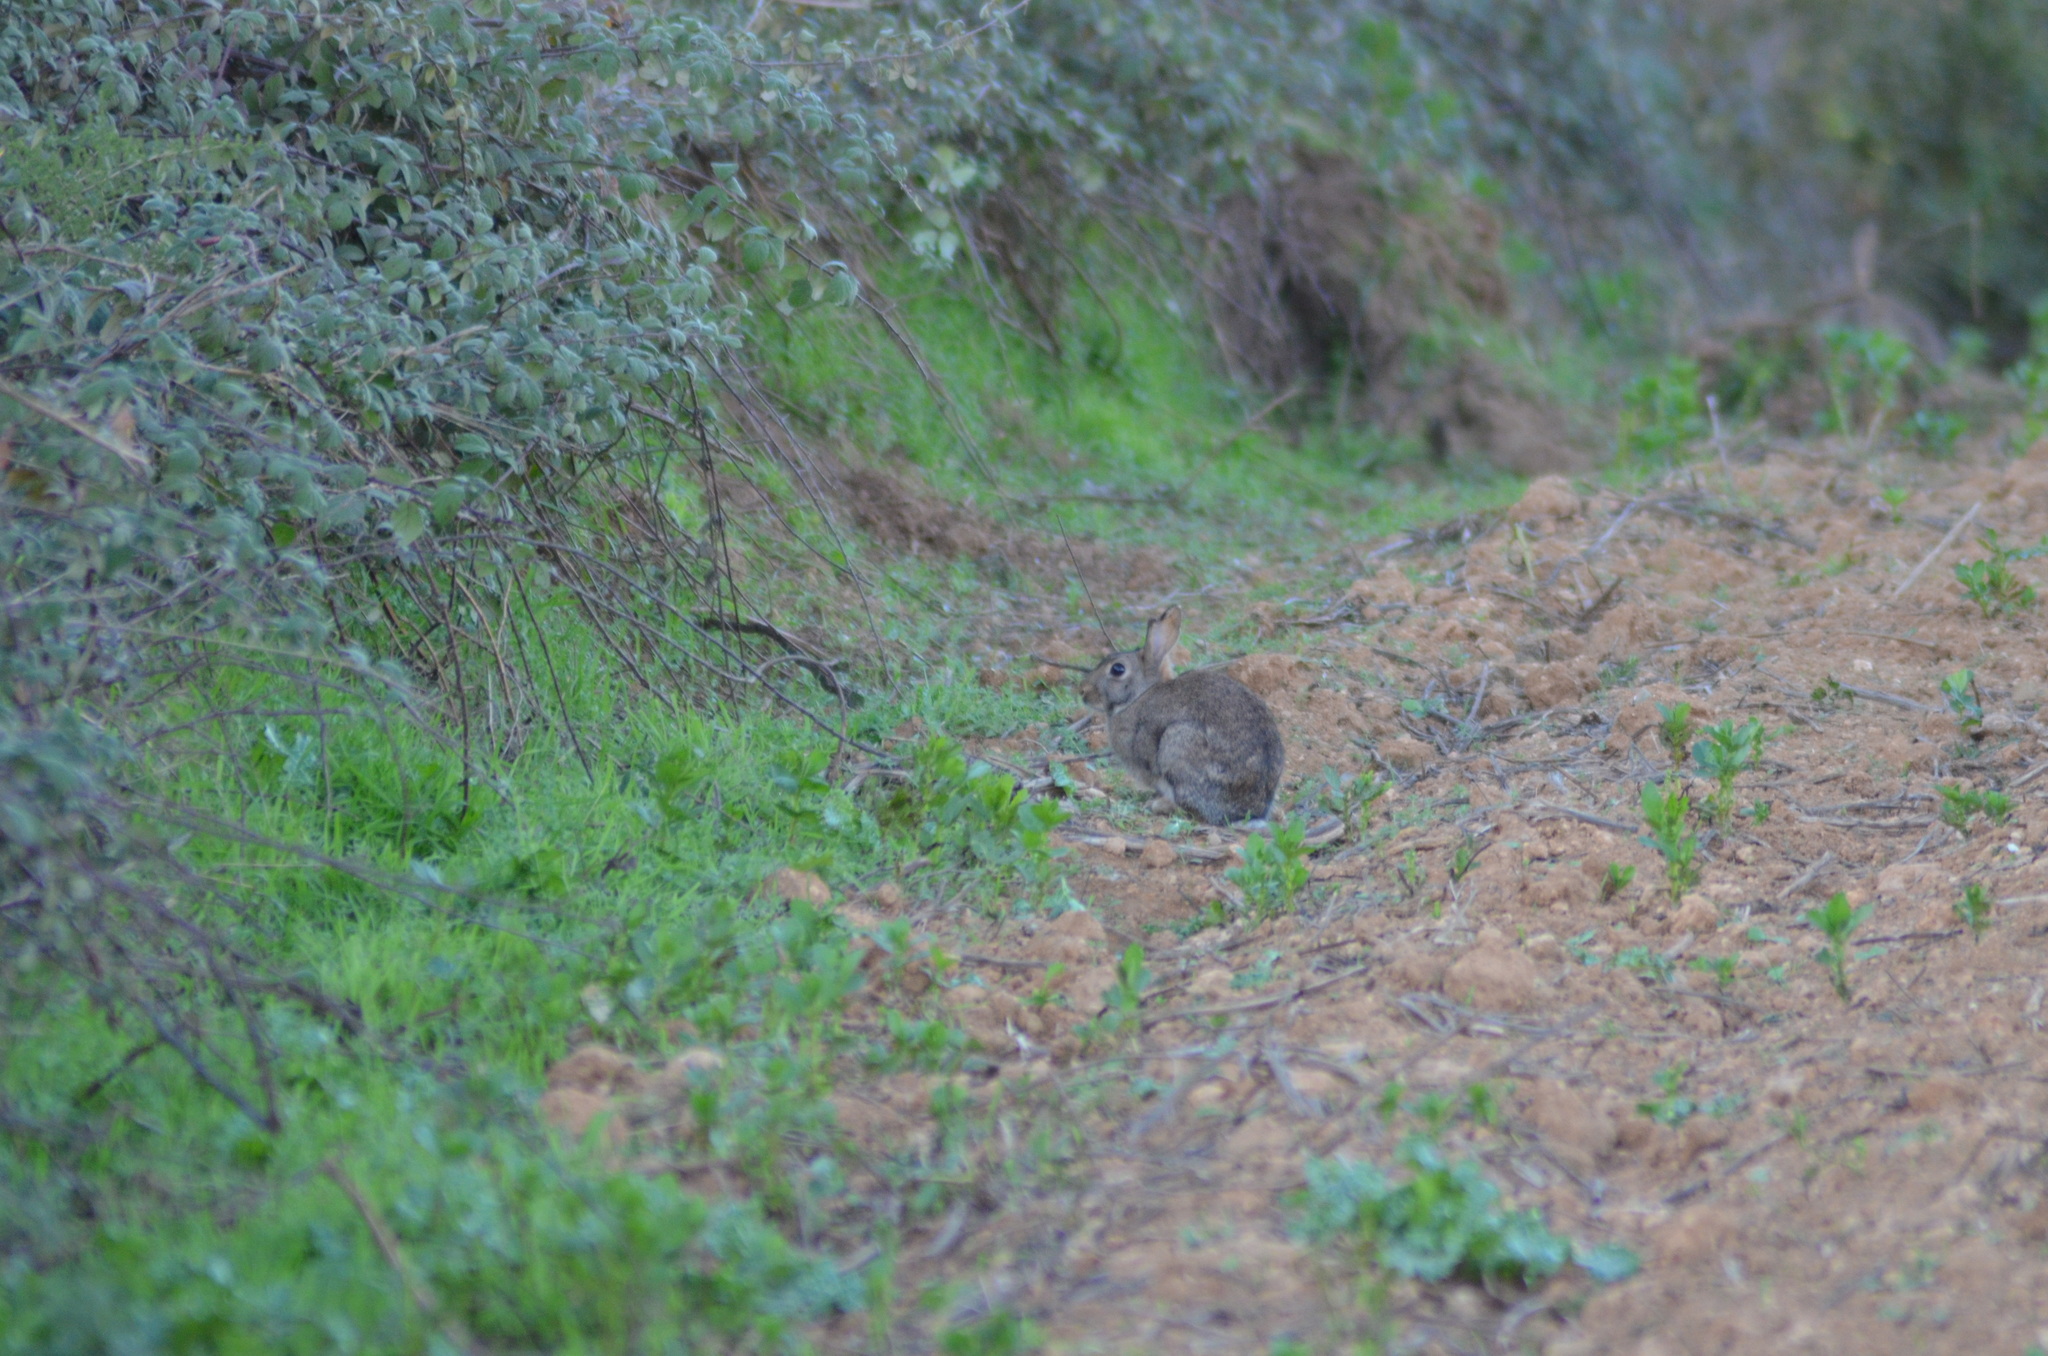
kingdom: Animalia
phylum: Chordata
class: Mammalia
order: Lagomorpha
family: Leporidae
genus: Oryctolagus
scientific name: Oryctolagus cuniculus
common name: European rabbit
